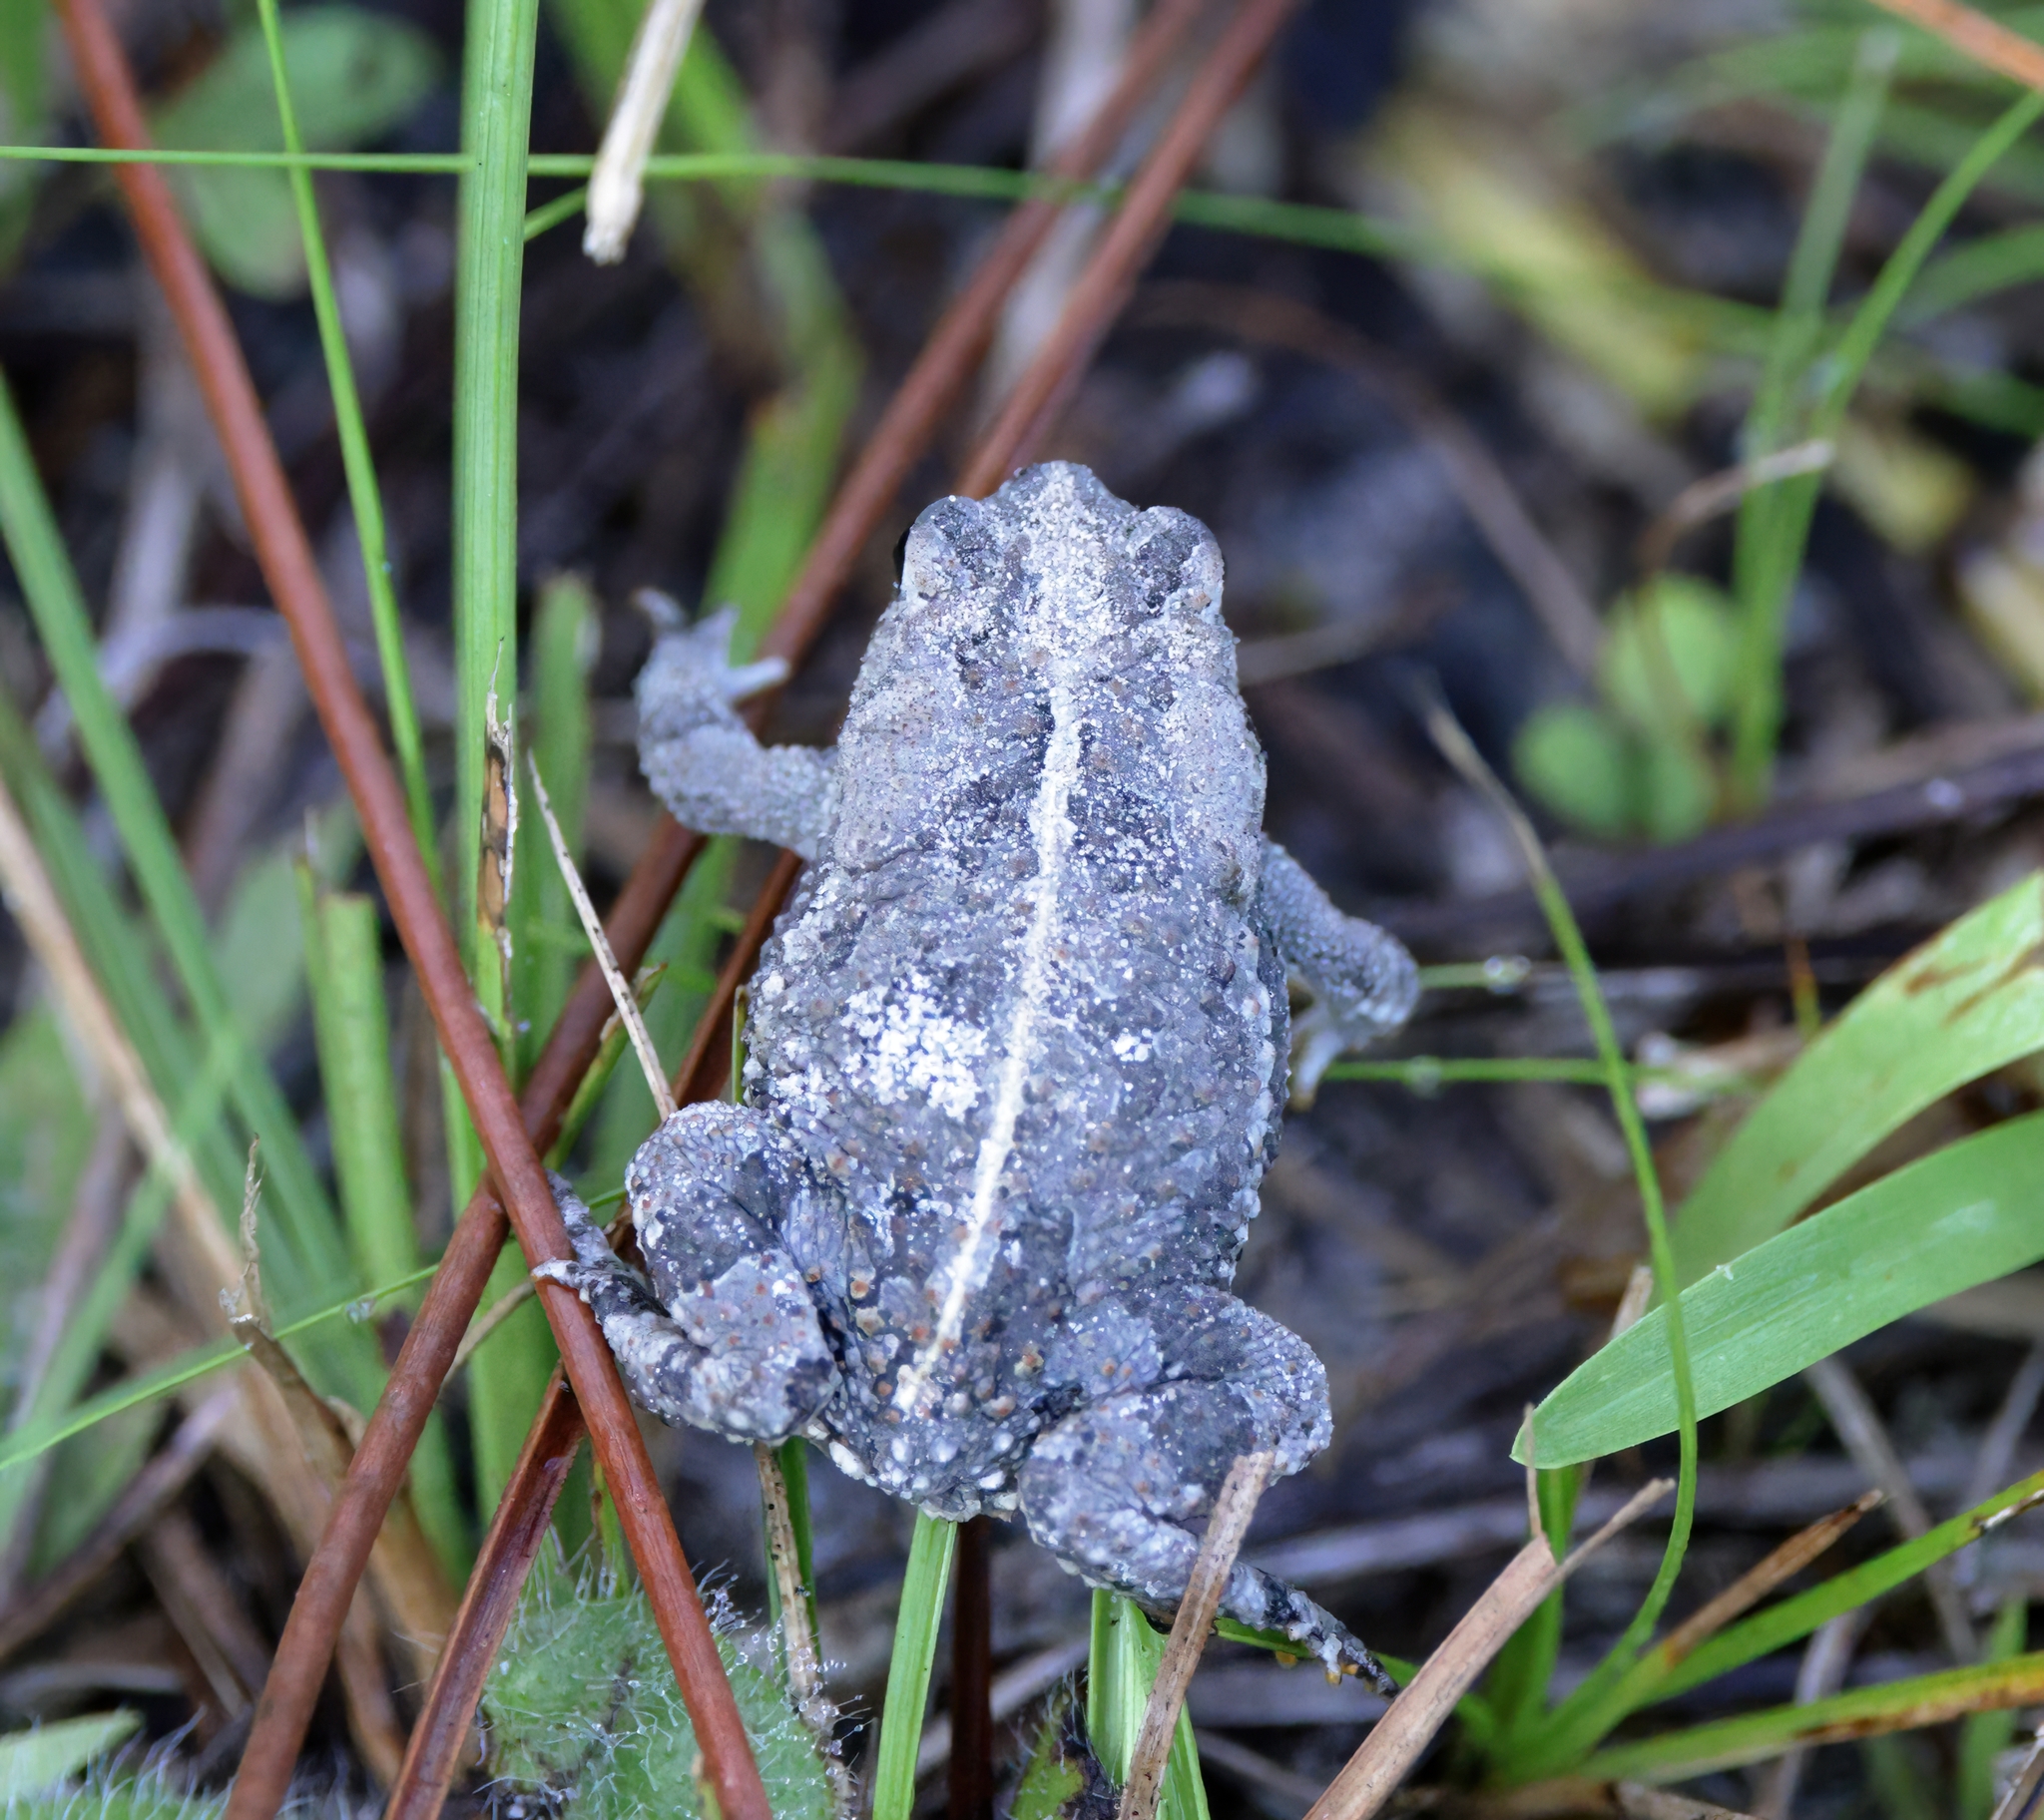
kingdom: Animalia
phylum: Chordata
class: Amphibia
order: Anura
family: Bufonidae
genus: Anaxyrus
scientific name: Anaxyrus quercicus
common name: Oak toad
